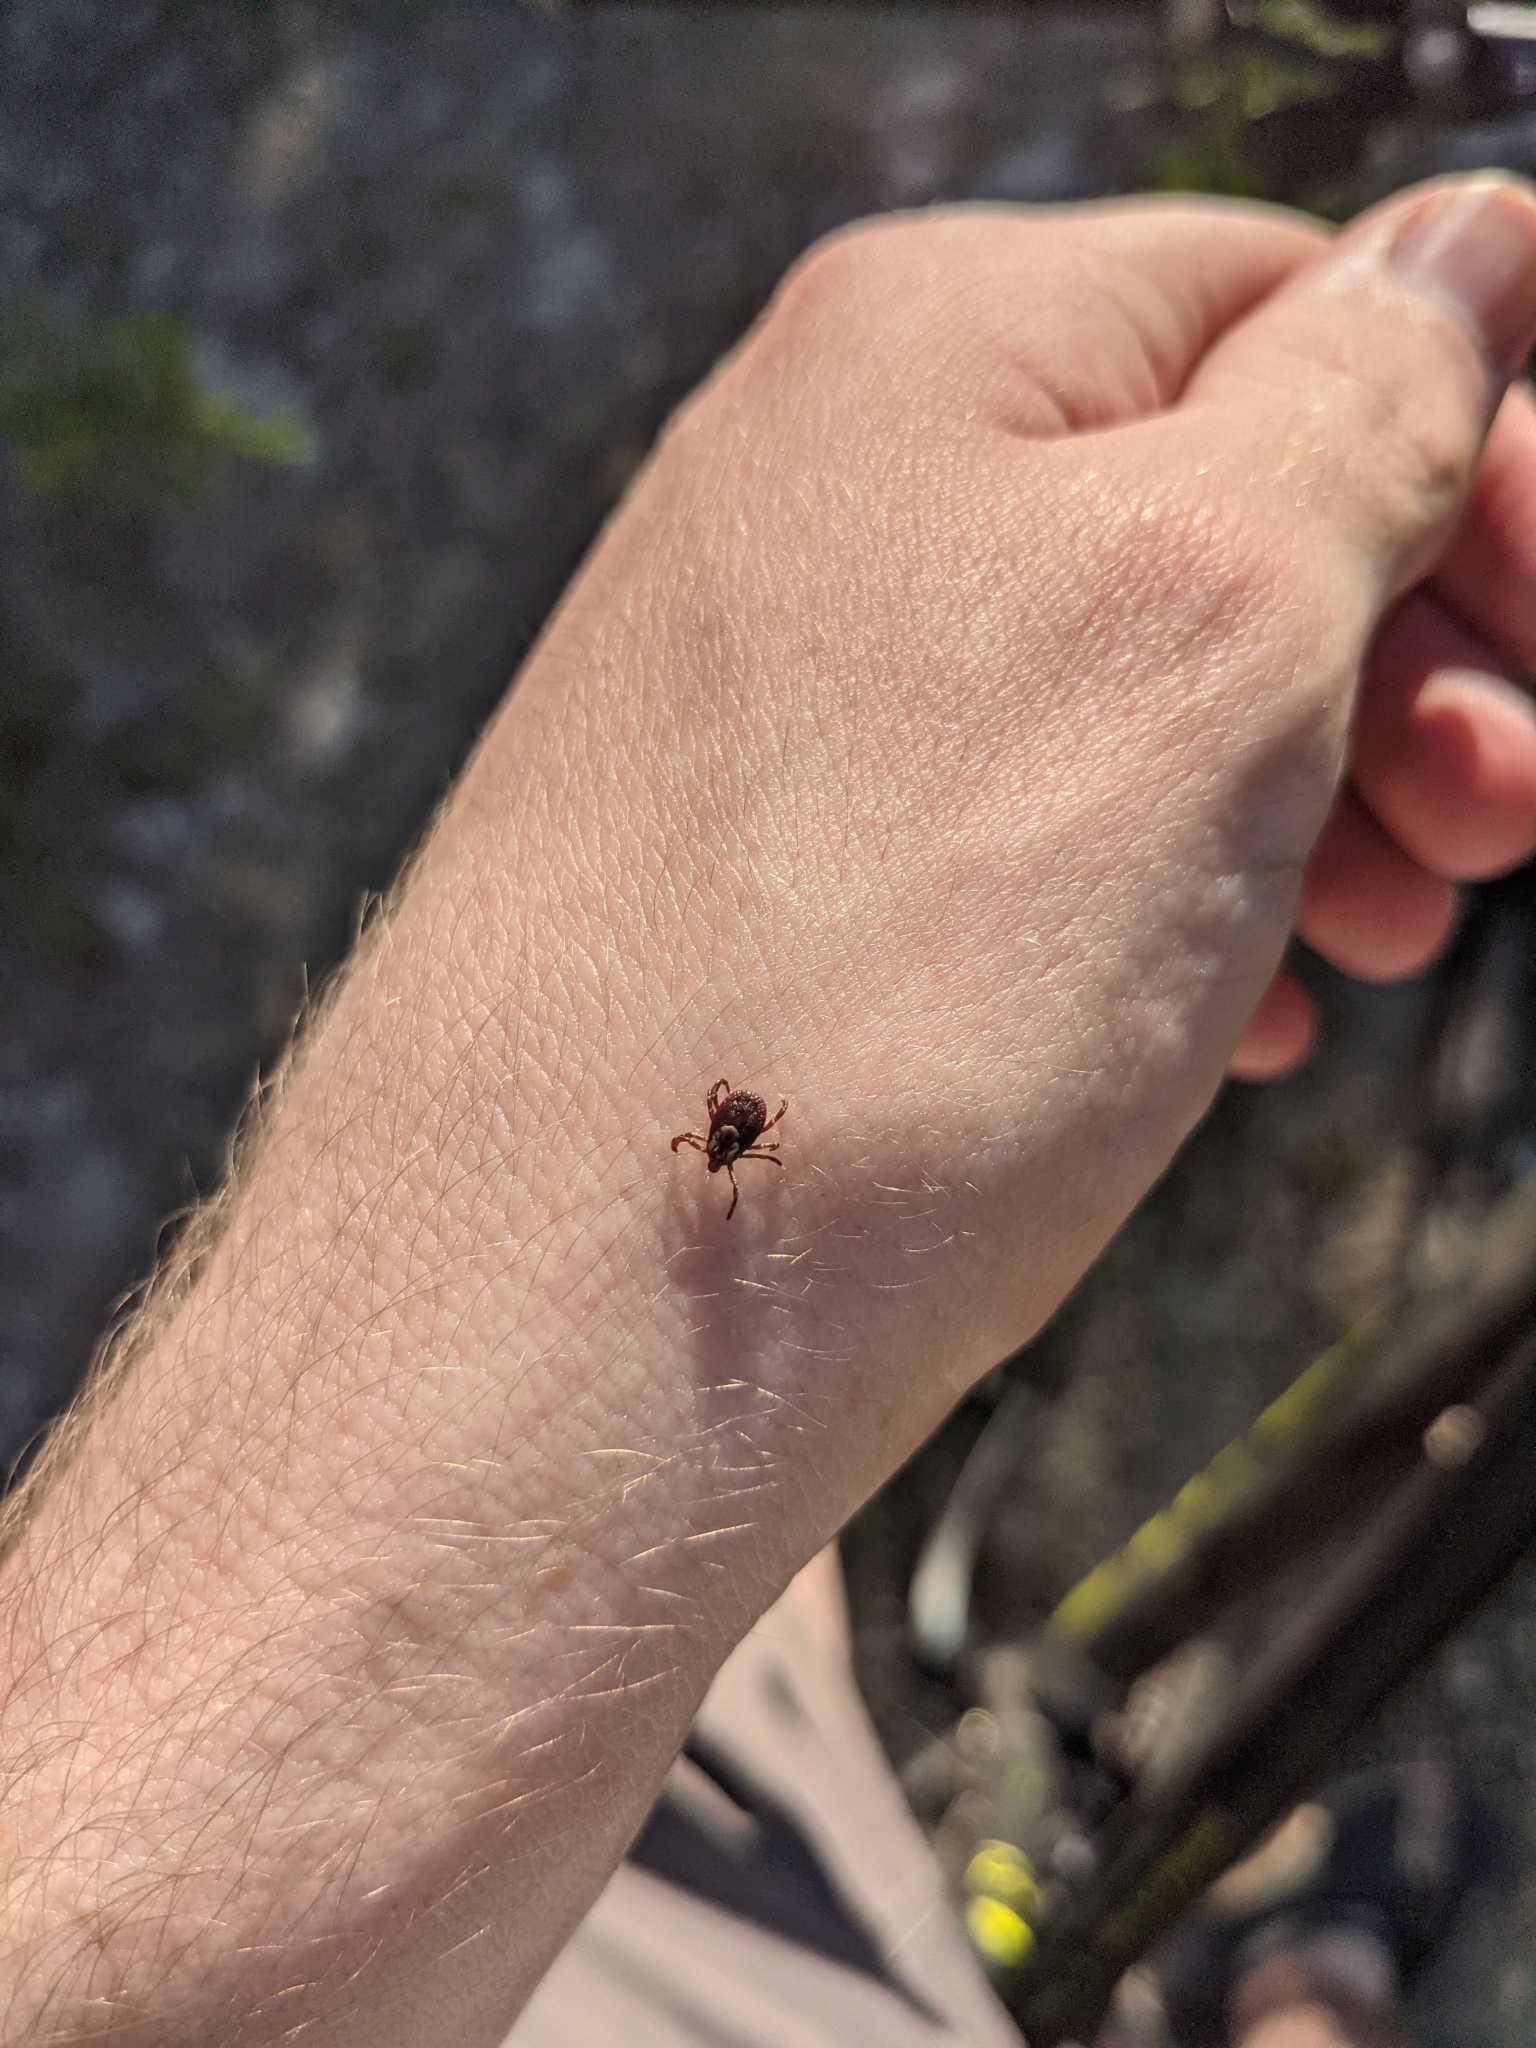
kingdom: Animalia
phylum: Arthropoda
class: Arachnida
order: Ixodida
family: Ixodidae
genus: Dermacentor
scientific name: Dermacentor variabilis
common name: American dog tick
